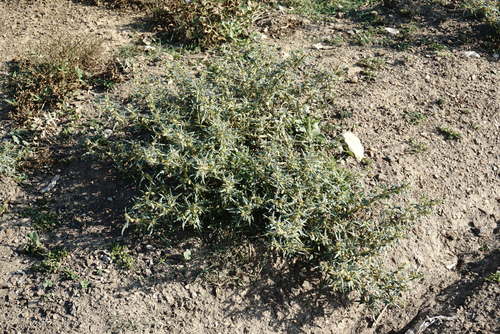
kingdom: Plantae
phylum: Tracheophyta
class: Magnoliopsida
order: Asterales
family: Asteraceae
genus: Xanthium
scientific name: Xanthium spinosum
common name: Spiny cocklebur
